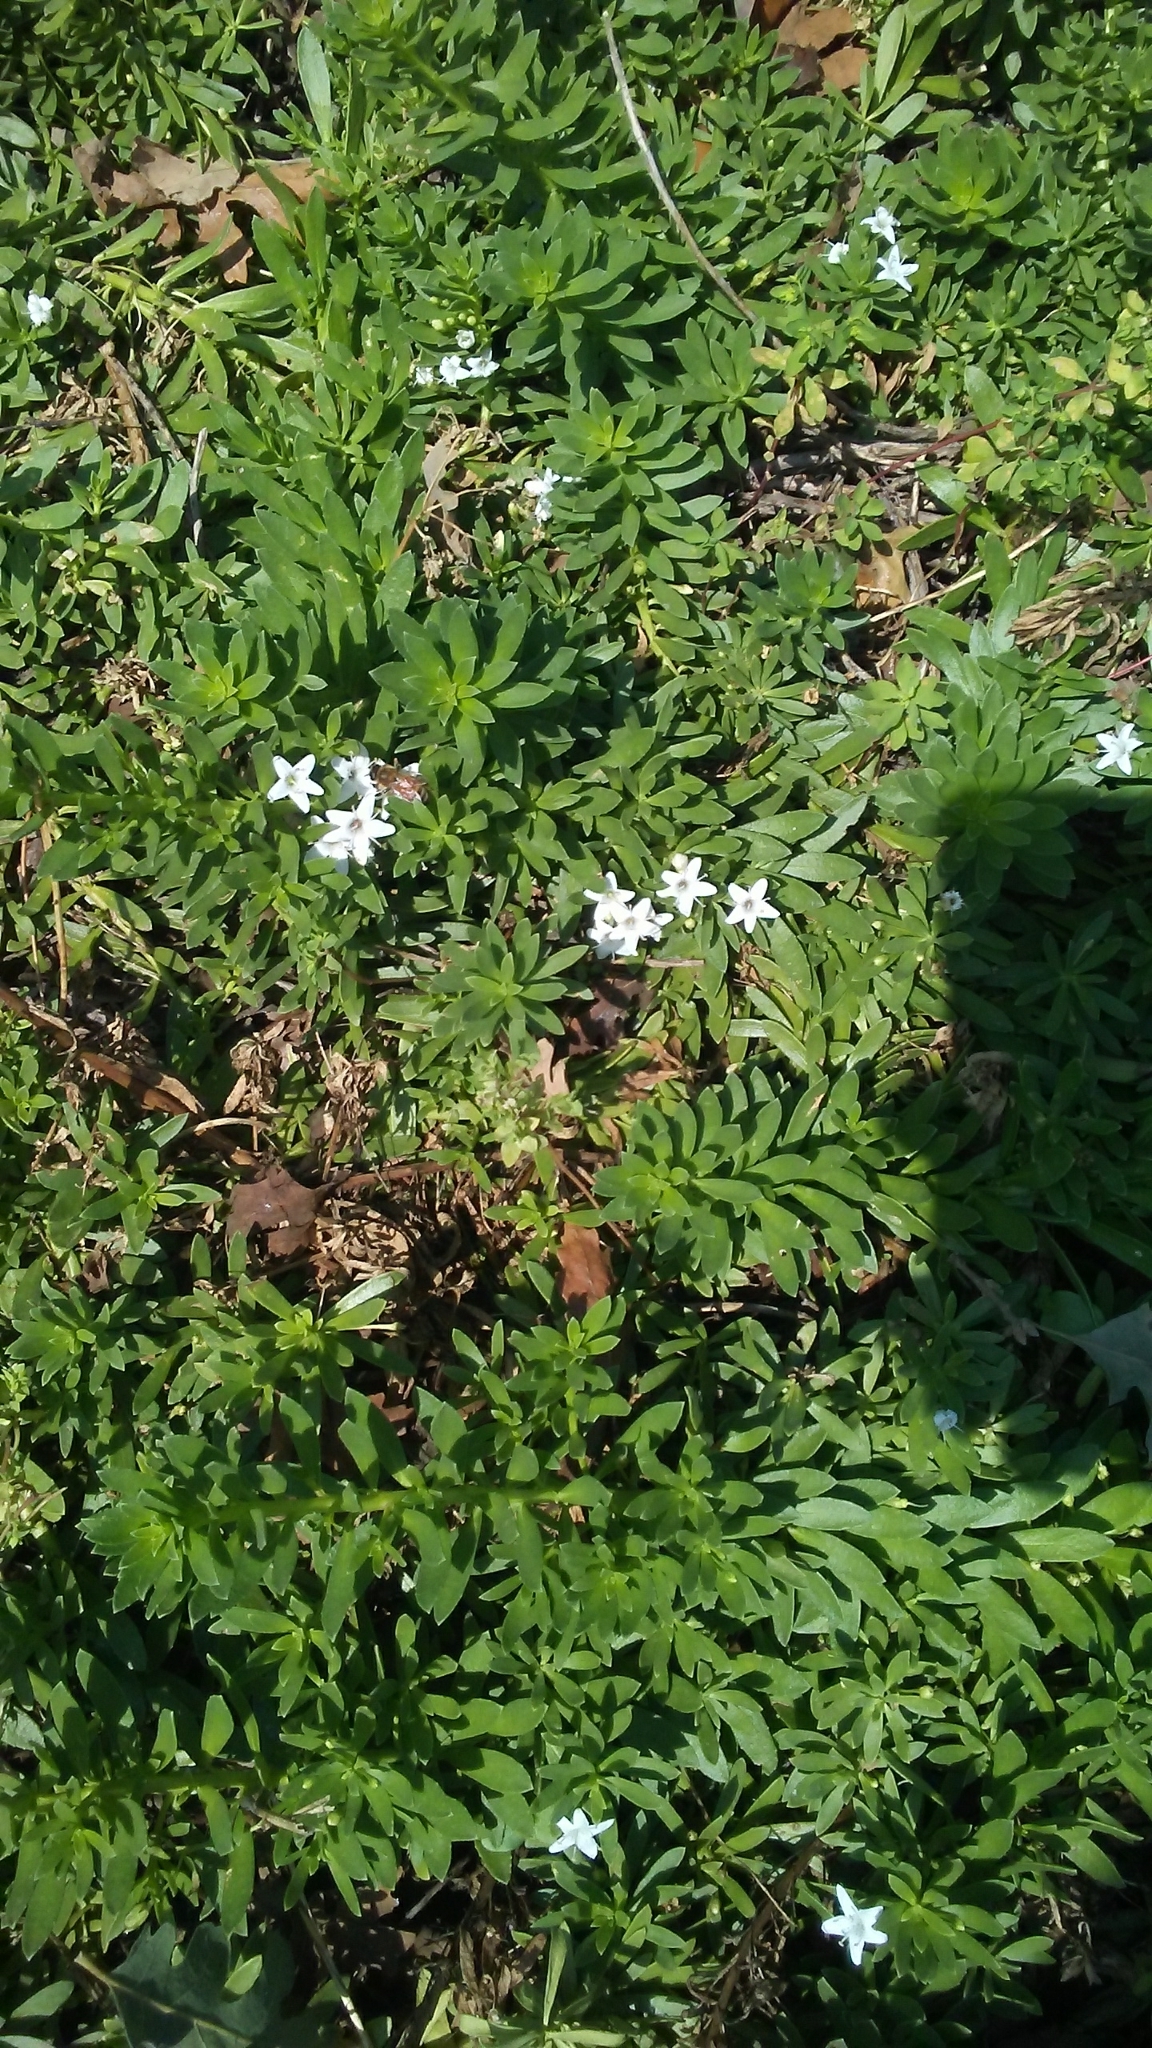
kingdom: Animalia
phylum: Arthropoda
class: Insecta
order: Hymenoptera
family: Apidae
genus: Apis
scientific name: Apis mellifera
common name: Honey bee
